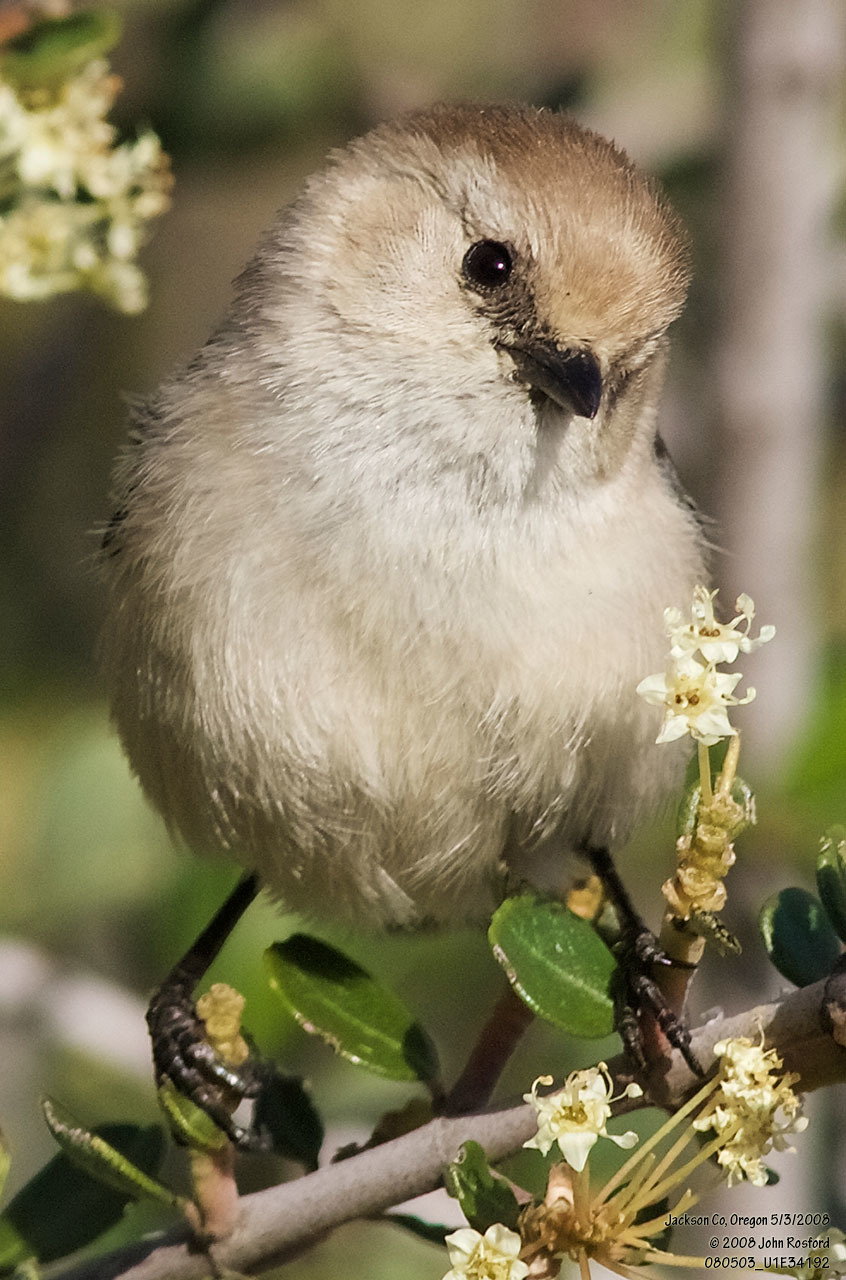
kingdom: Animalia
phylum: Chordata
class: Aves
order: Passeriformes
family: Aegithalidae
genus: Psaltriparus
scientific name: Psaltriparus minimus
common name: American bushtit
